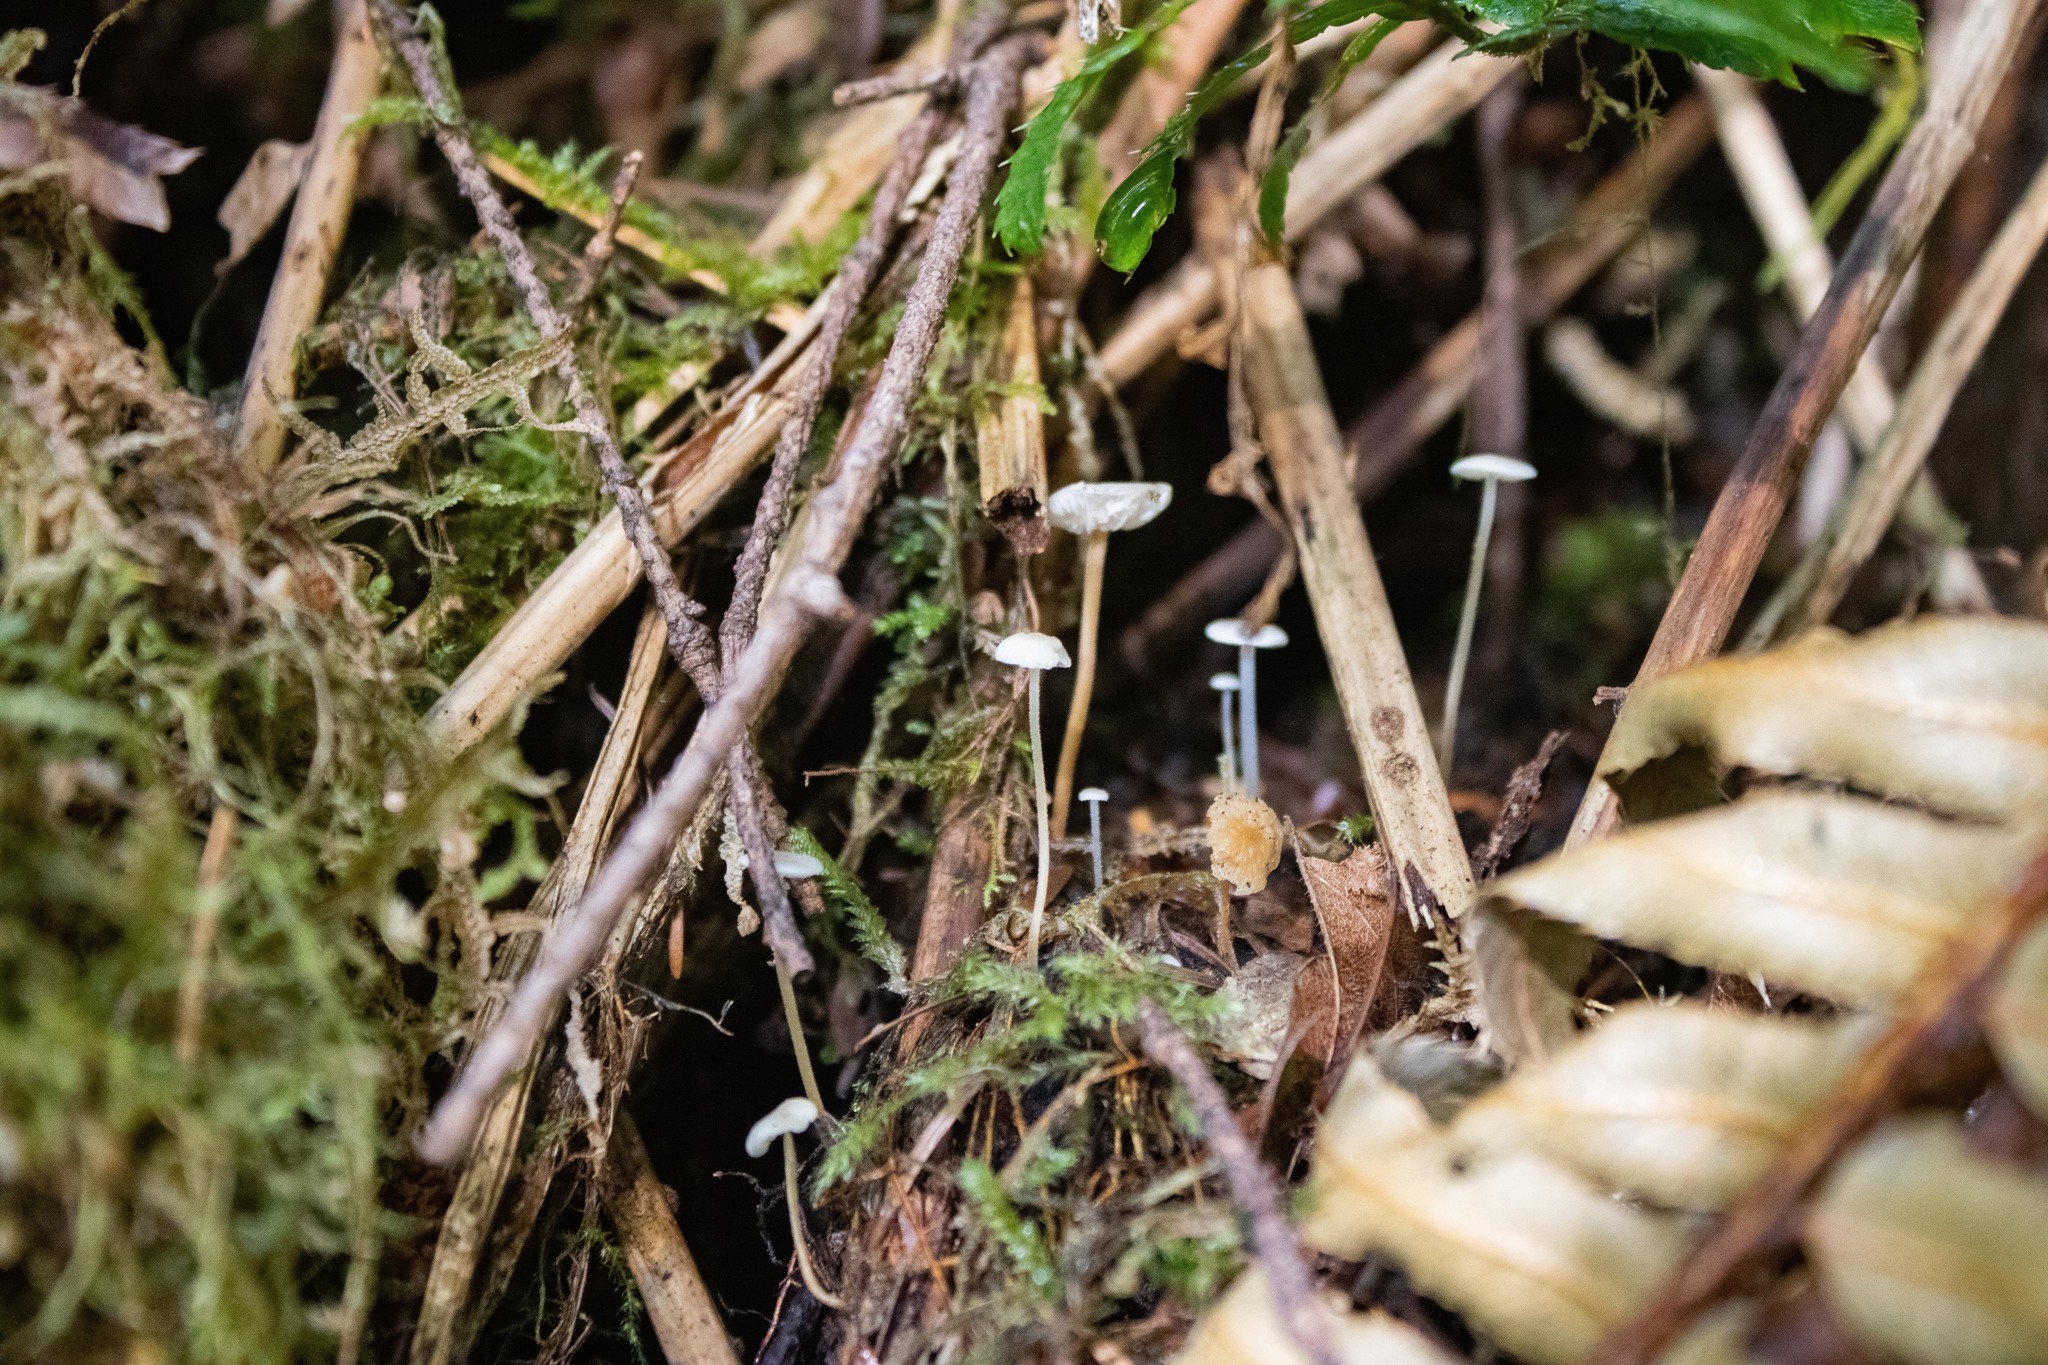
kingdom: Fungi
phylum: Basidiomycota
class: Agaricomycetes
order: Agaricales
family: Physalacriaceae
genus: Strobilurus
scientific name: Strobilurus trullisatus
